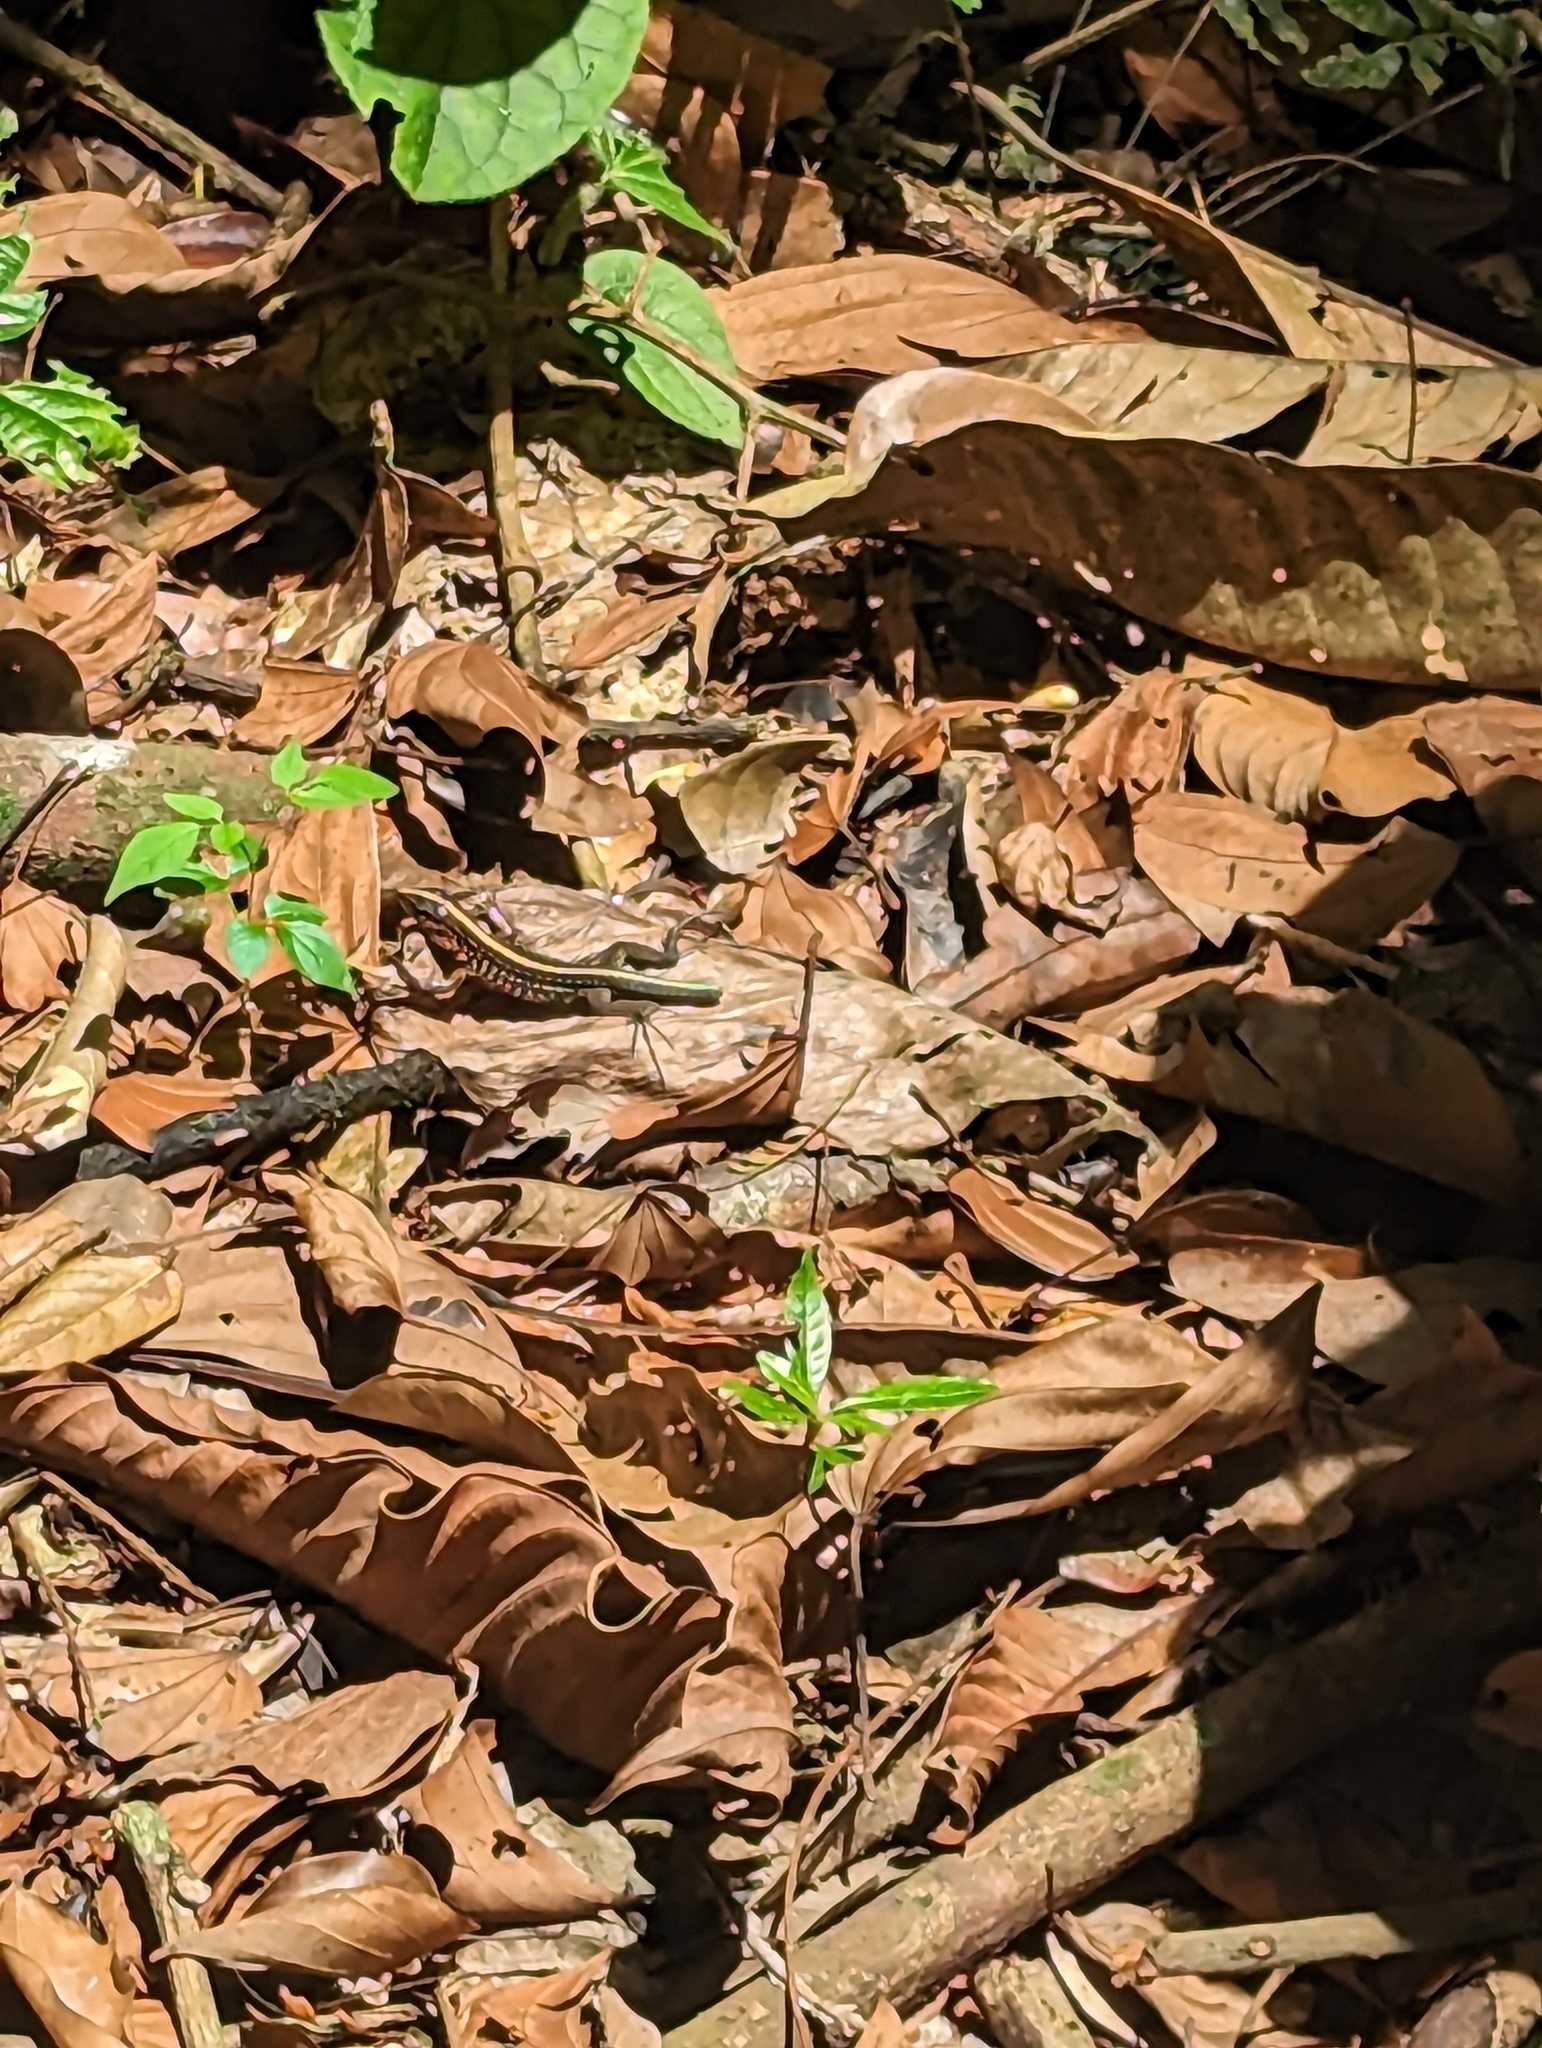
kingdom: Animalia
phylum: Chordata
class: Squamata
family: Teiidae
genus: Holcosus
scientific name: Holcosus festivus
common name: Middle american ameiva
